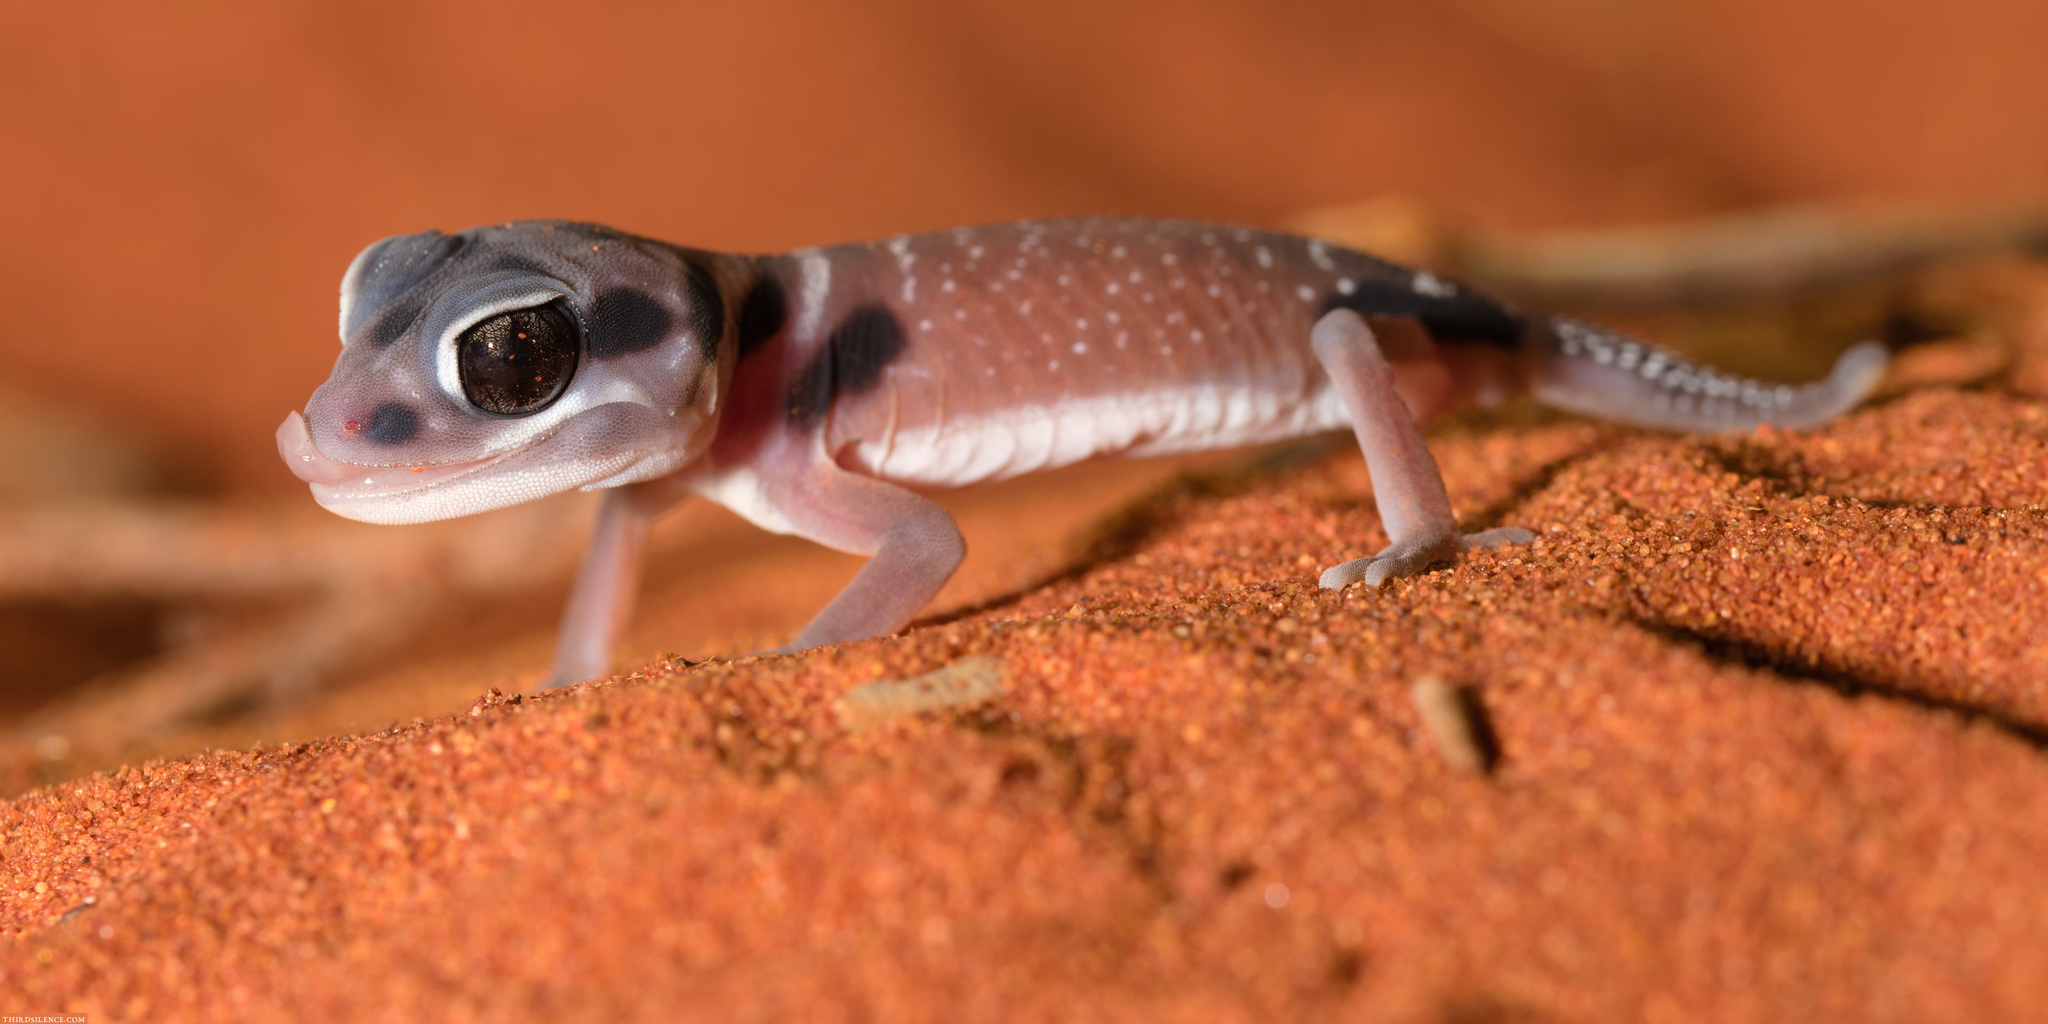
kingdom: Animalia
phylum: Chordata
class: Squamata
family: Carphodactylidae
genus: Nephrurus
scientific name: Nephrurus laevissimus
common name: Smooth knob-tail
